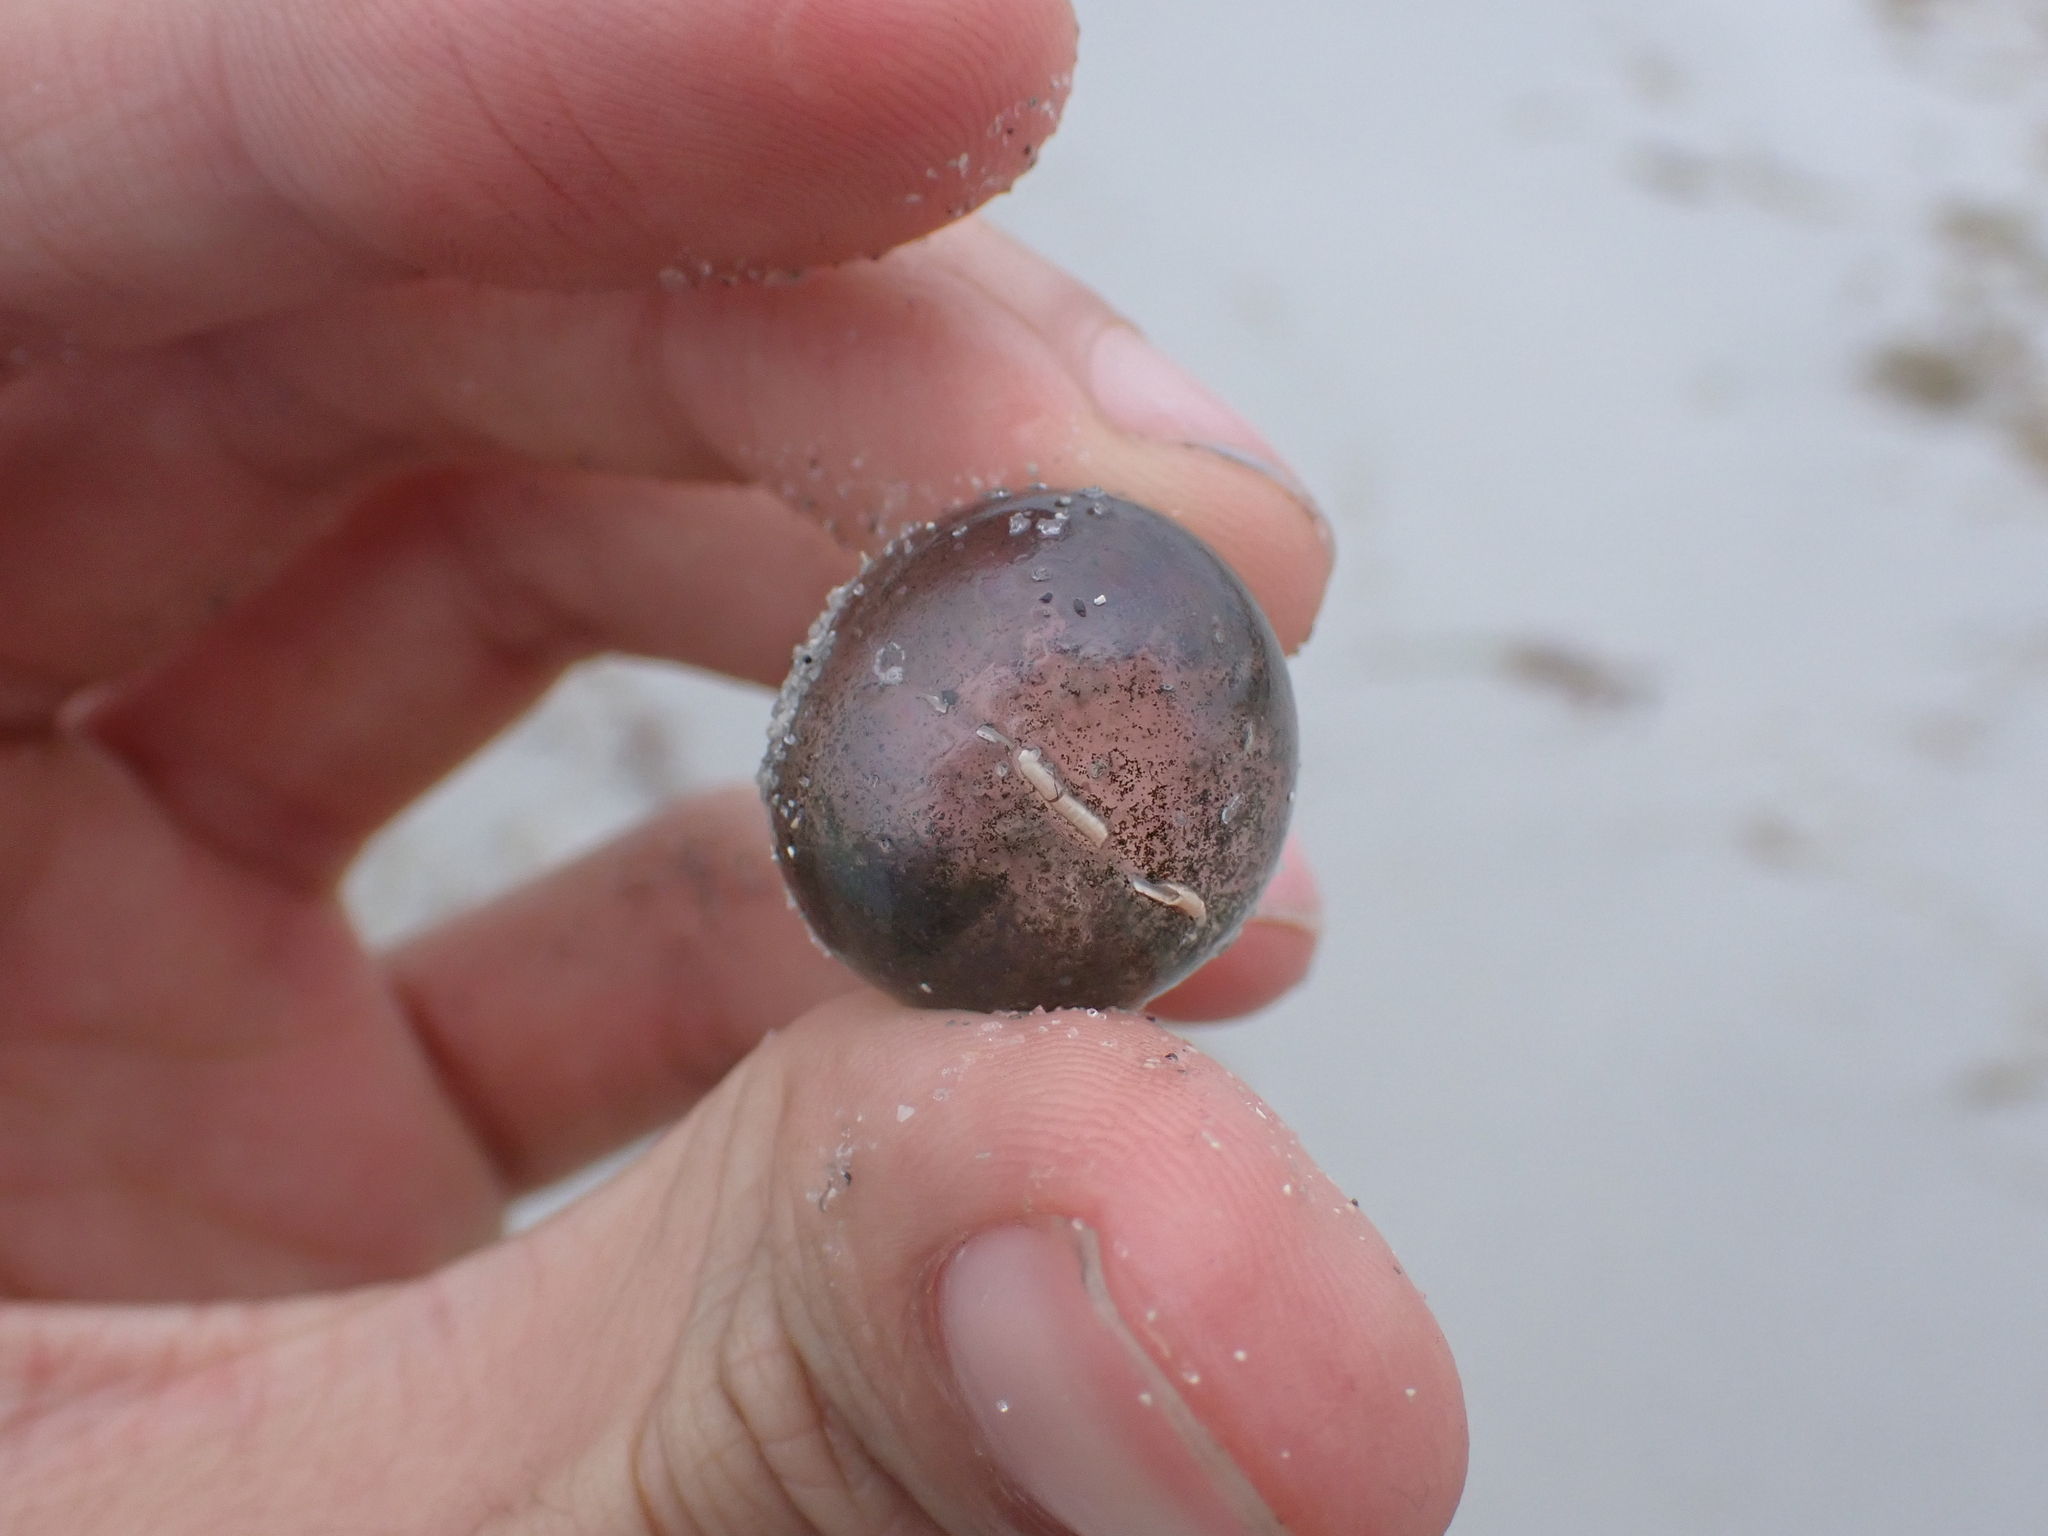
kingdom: Plantae
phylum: Chlorophyta
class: Ulvophyceae
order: Siphonocladales
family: Valoniaceae
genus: Valonia
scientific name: Valonia ventricosa
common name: Sea pearl
